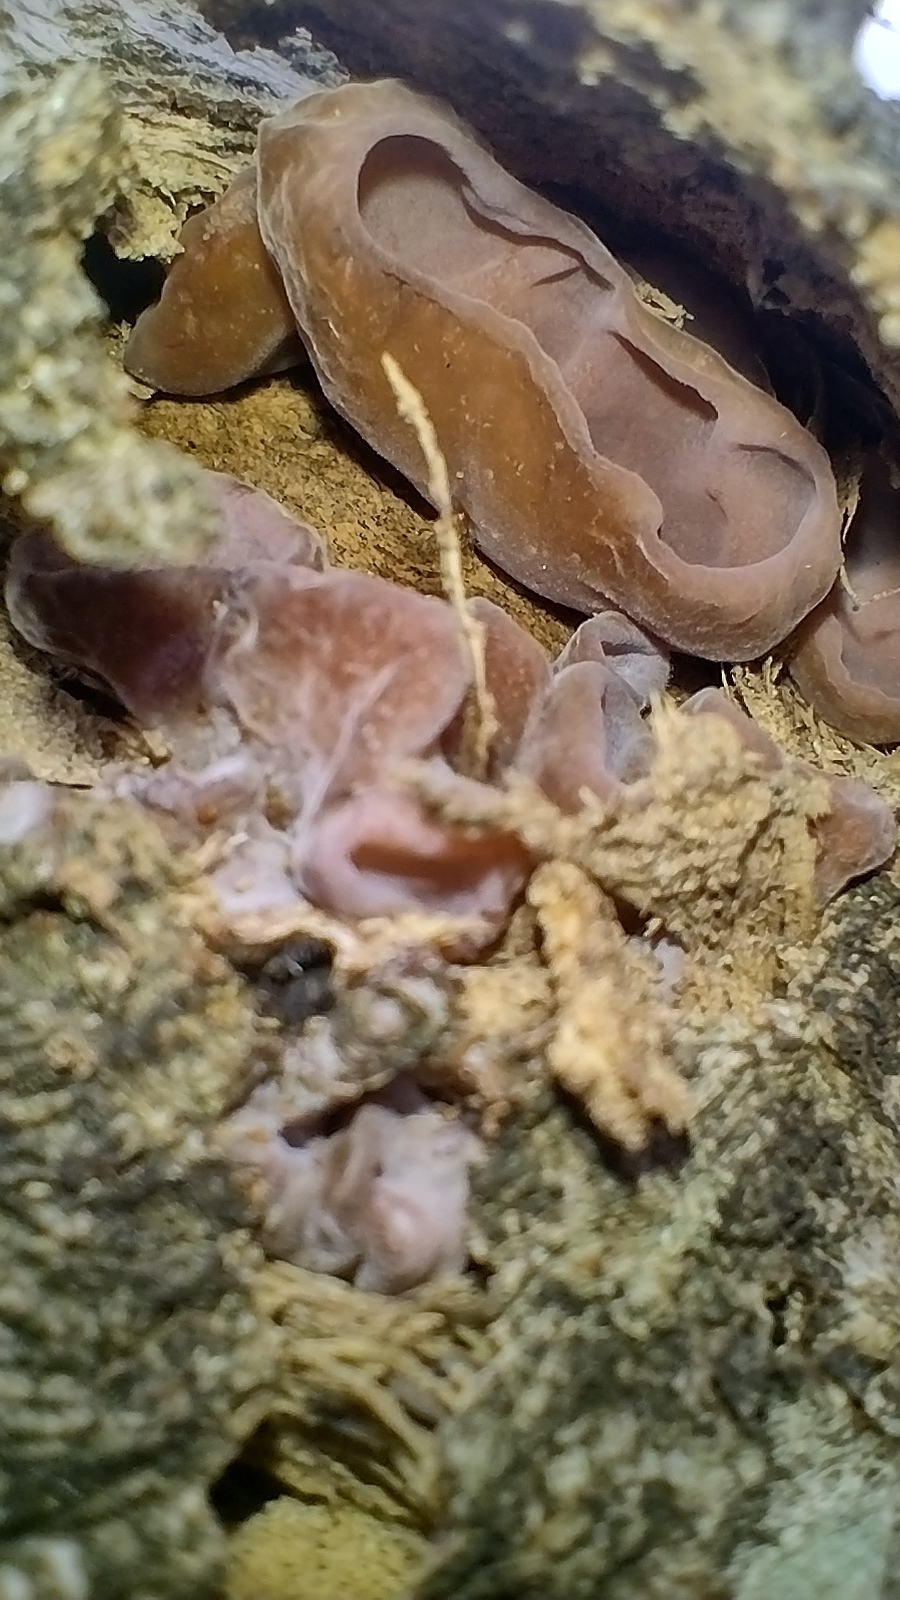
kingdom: Fungi
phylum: Basidiomycota
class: Agaricomycetes
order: Auriculariales
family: Auriculariaceae
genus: Auricularia
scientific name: Auricularia fuscosuccinea
